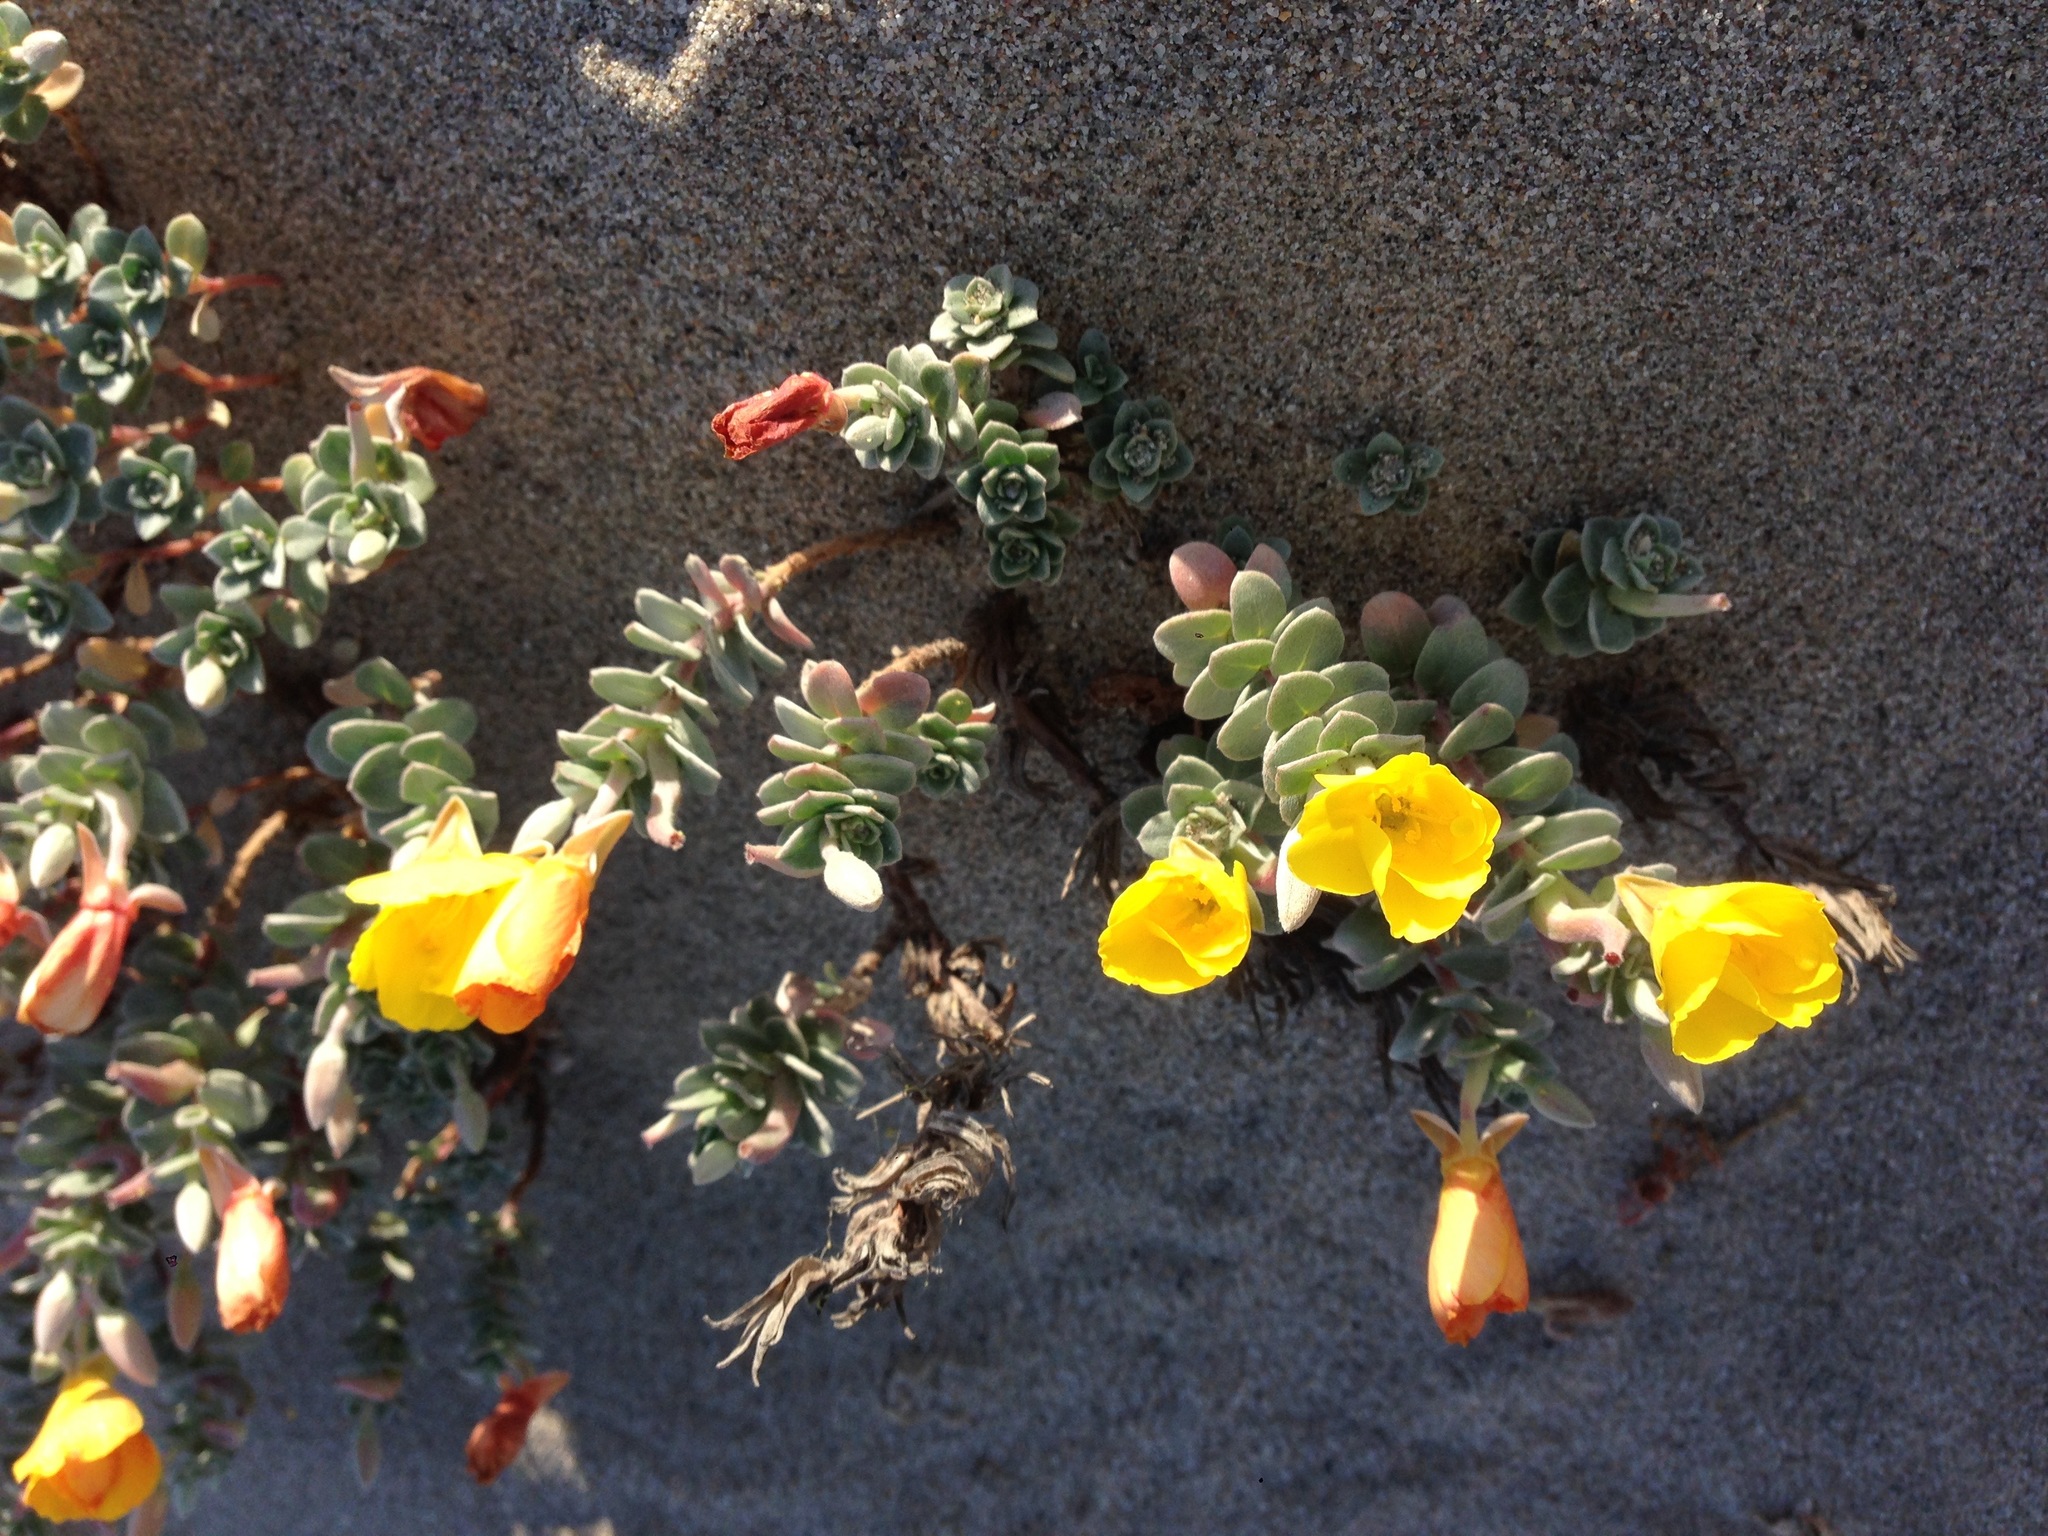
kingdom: Plantae
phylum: Tracheophyta
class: Magnoliopsida
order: Myrtales
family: Onagraceae
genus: Camissoniopsis
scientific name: Camissoniopsis cheiranthifolia
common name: Beach suncup
